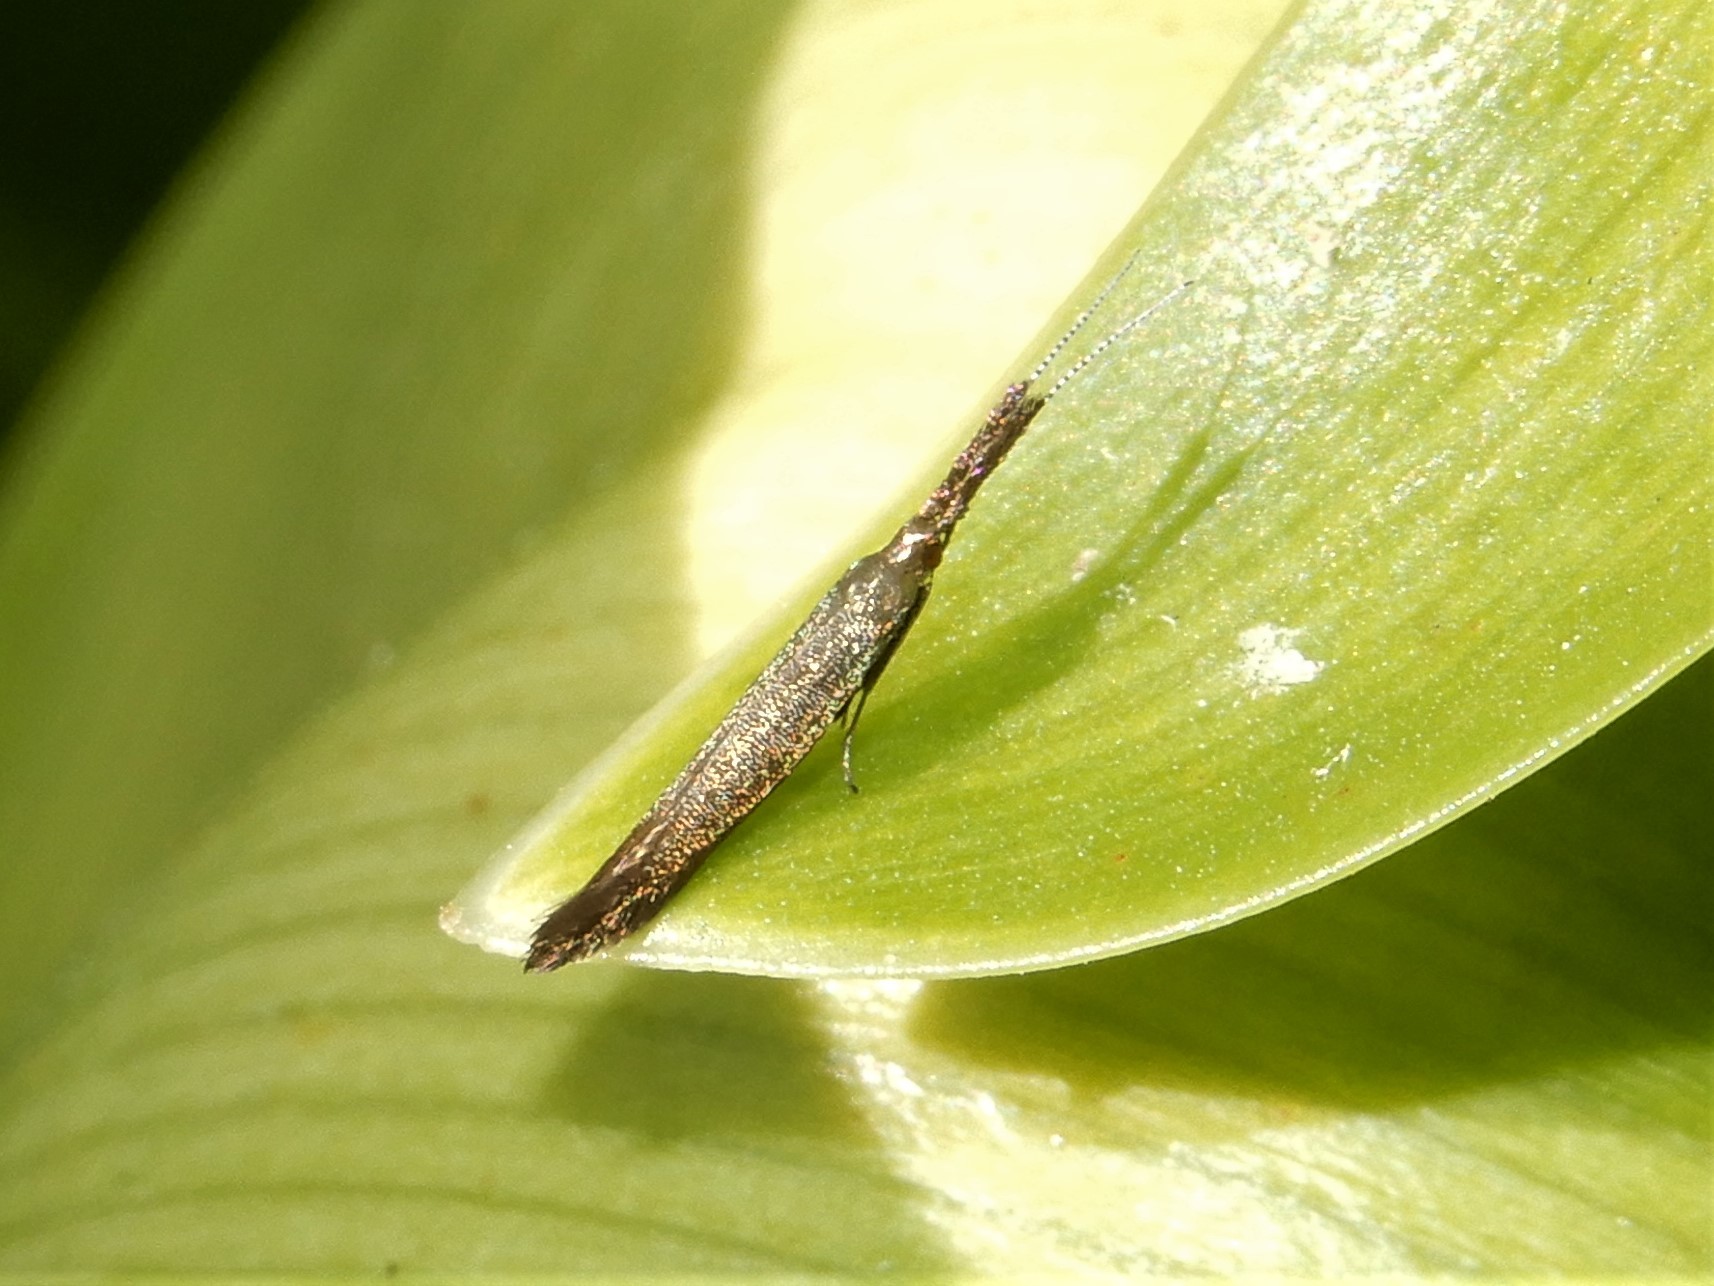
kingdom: Animalia
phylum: Arthropoda
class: Insecta
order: Lepidoptera
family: Coleophoridae
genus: Coleophora
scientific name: Coleophora mayrella
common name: Meadow case-bearer
